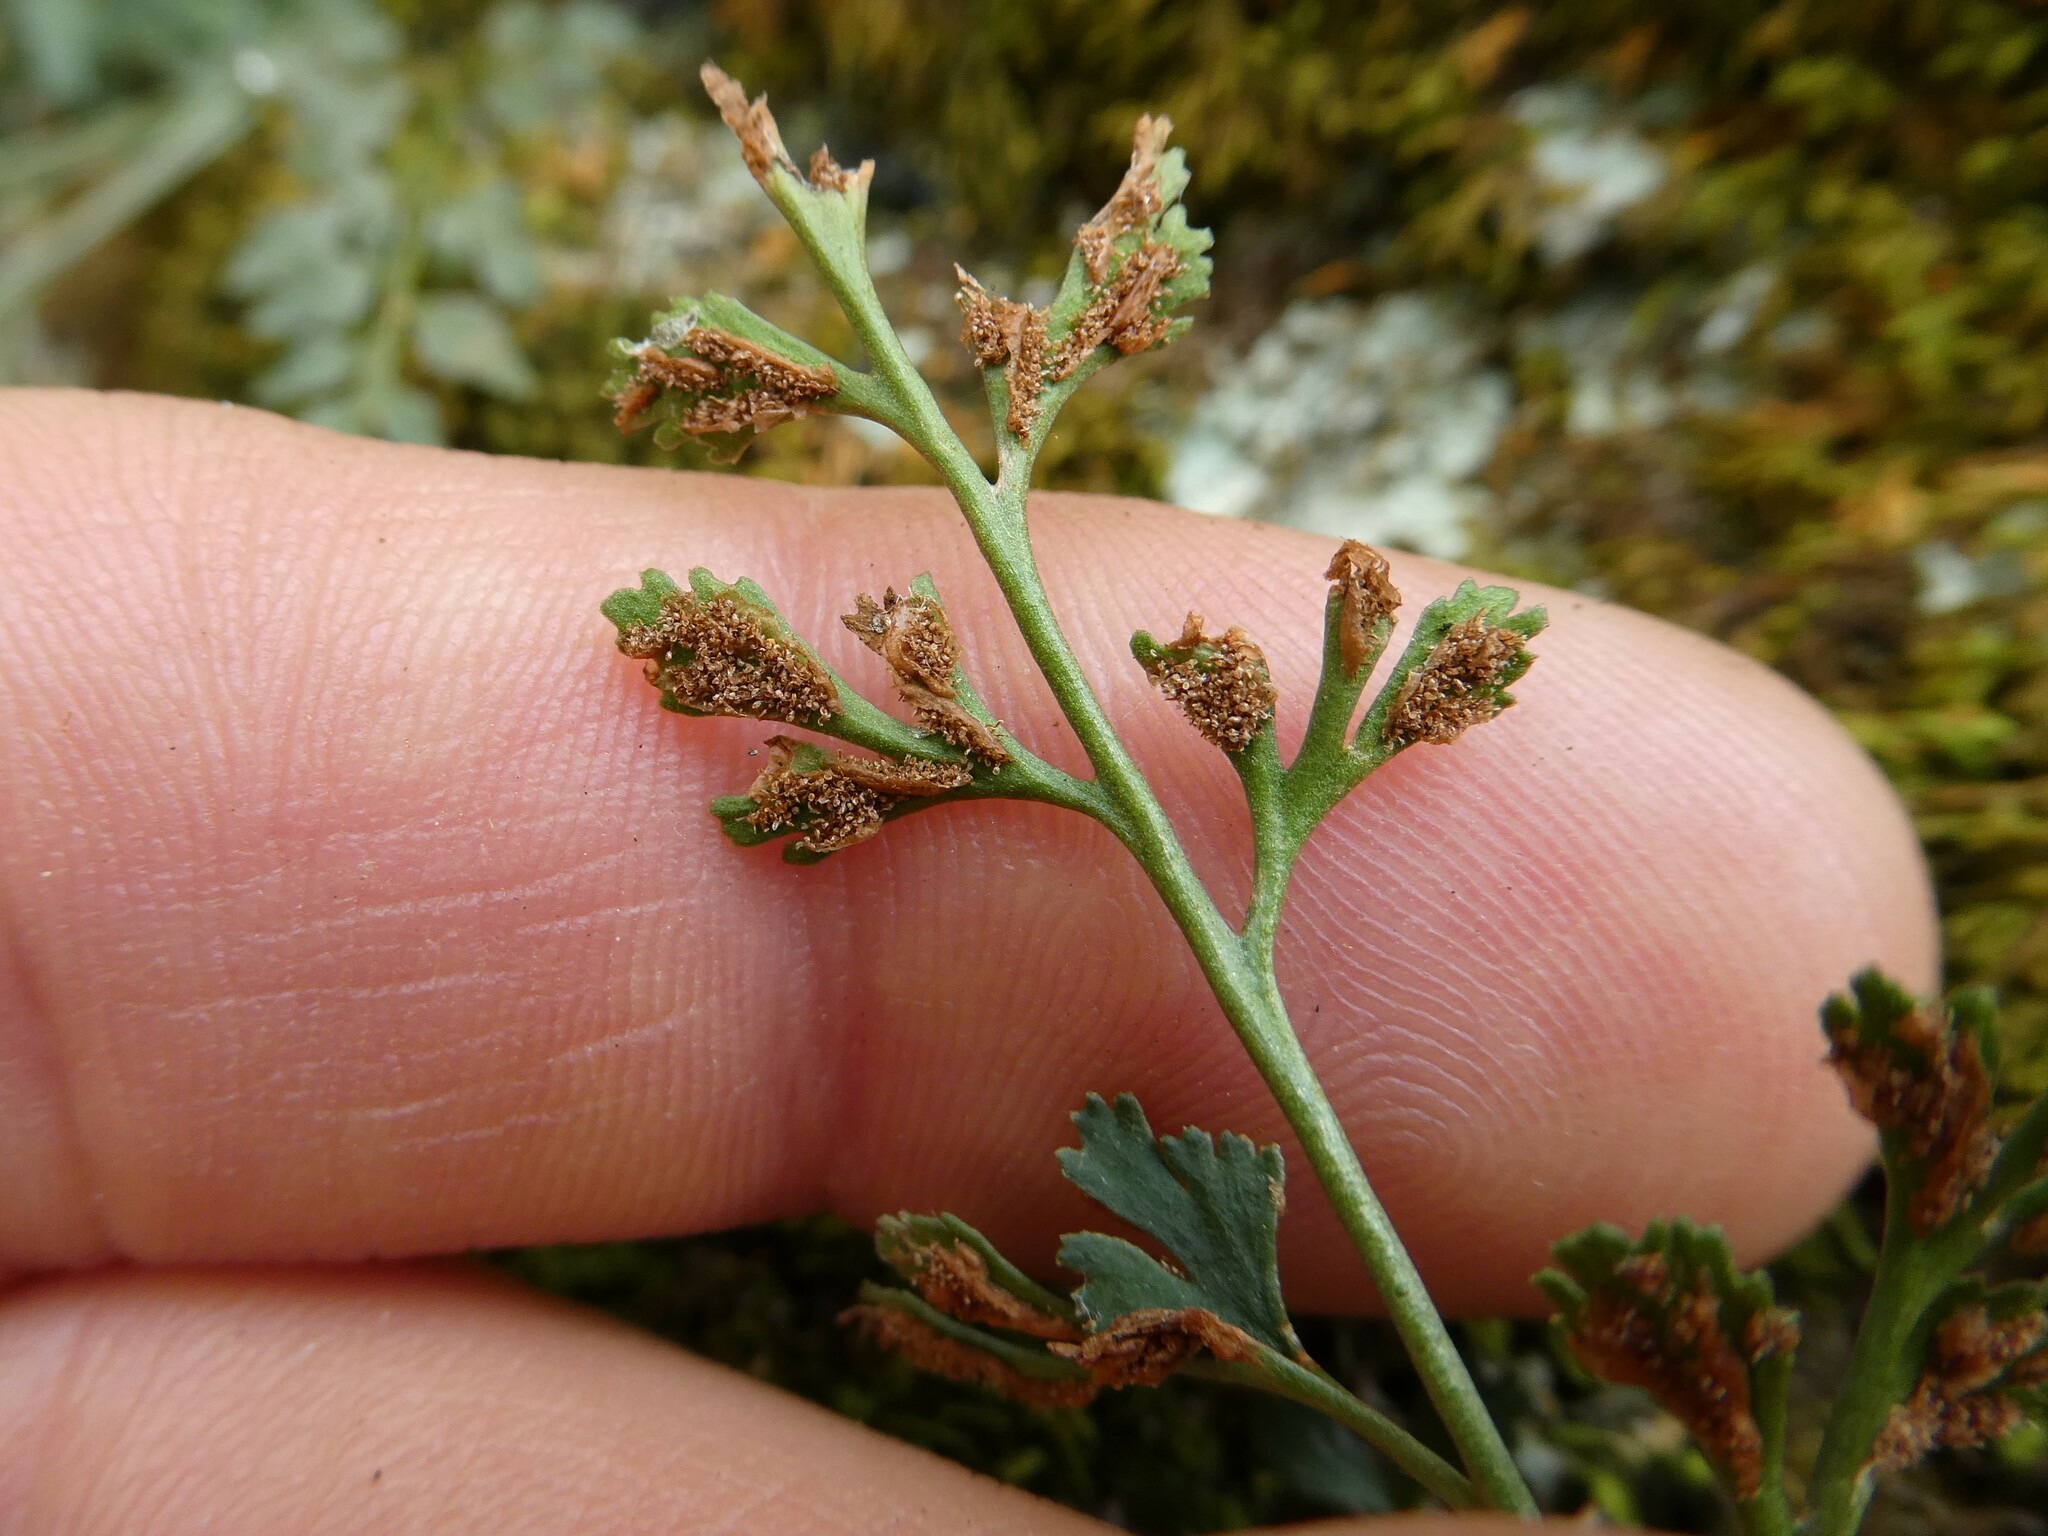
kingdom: Plantae
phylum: Tracheophyta
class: Polypodiopsida
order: Polypodiales
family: Aspleniaceae
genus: Asplenium
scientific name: Asplenium ruta-muraria
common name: Wall-rue
